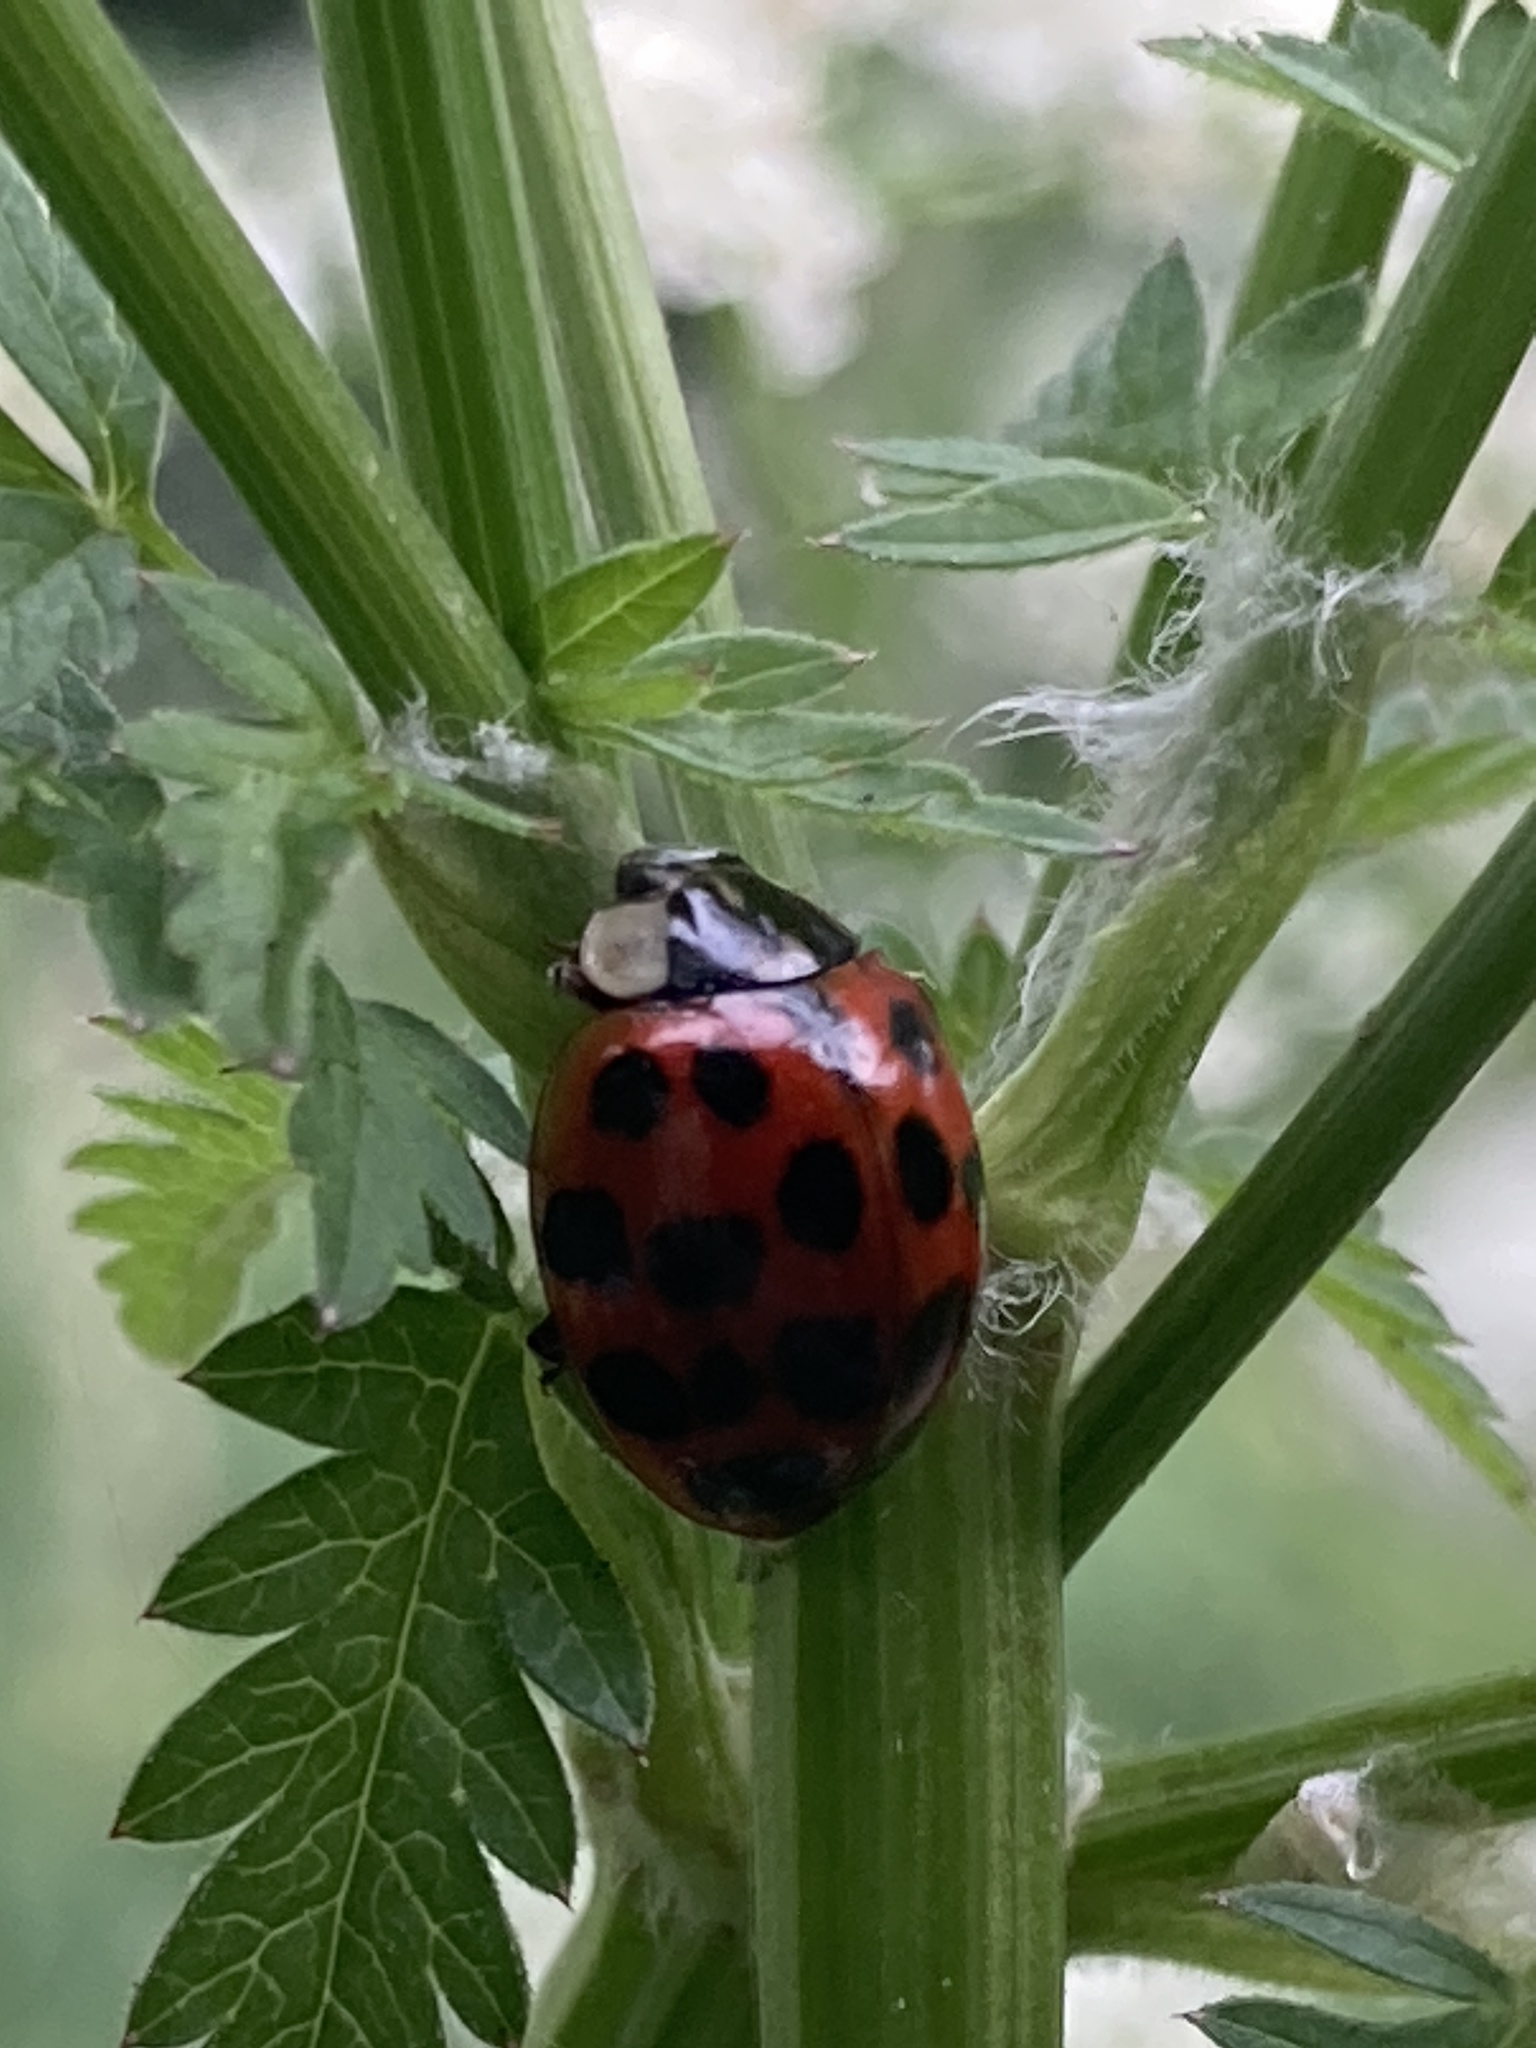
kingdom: Animalia
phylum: Arthropoda
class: Insecta
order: Coleoptera
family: Coccinellidae
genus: Harmonia
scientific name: Harmonia axyridis
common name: Harlequin ladybird
